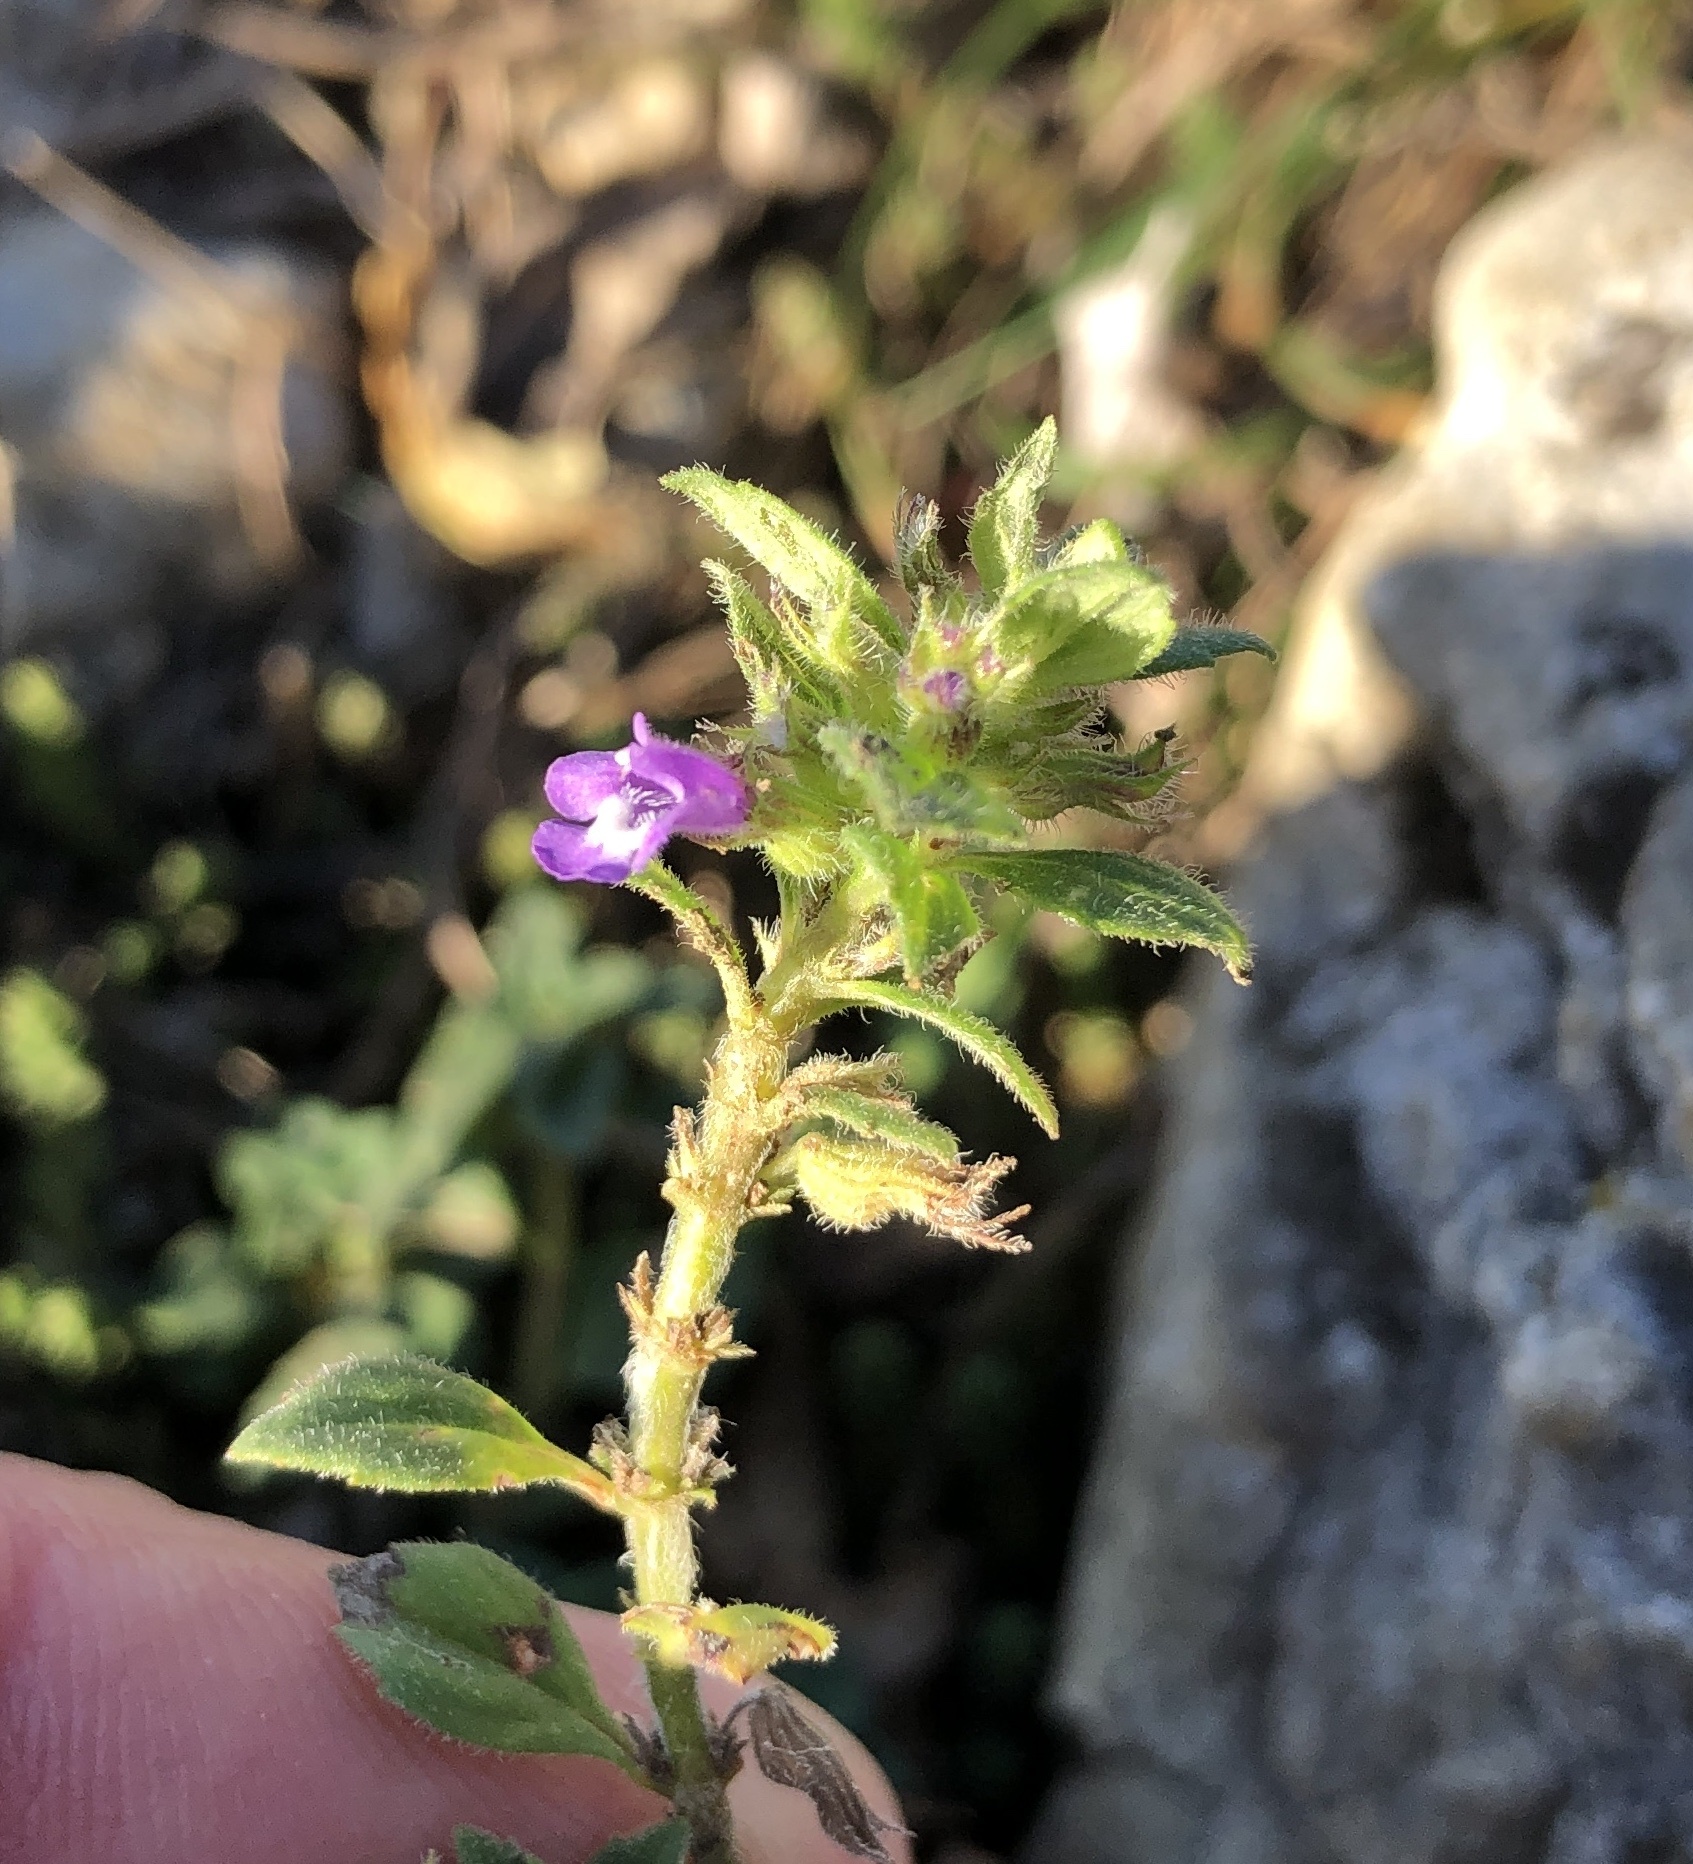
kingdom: Plantae
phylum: Tracheophyta
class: Magnoliopsida
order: Lamiales
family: Lamiaceae
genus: Clinopodium
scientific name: Clinopodium acinos
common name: Basil thyme
